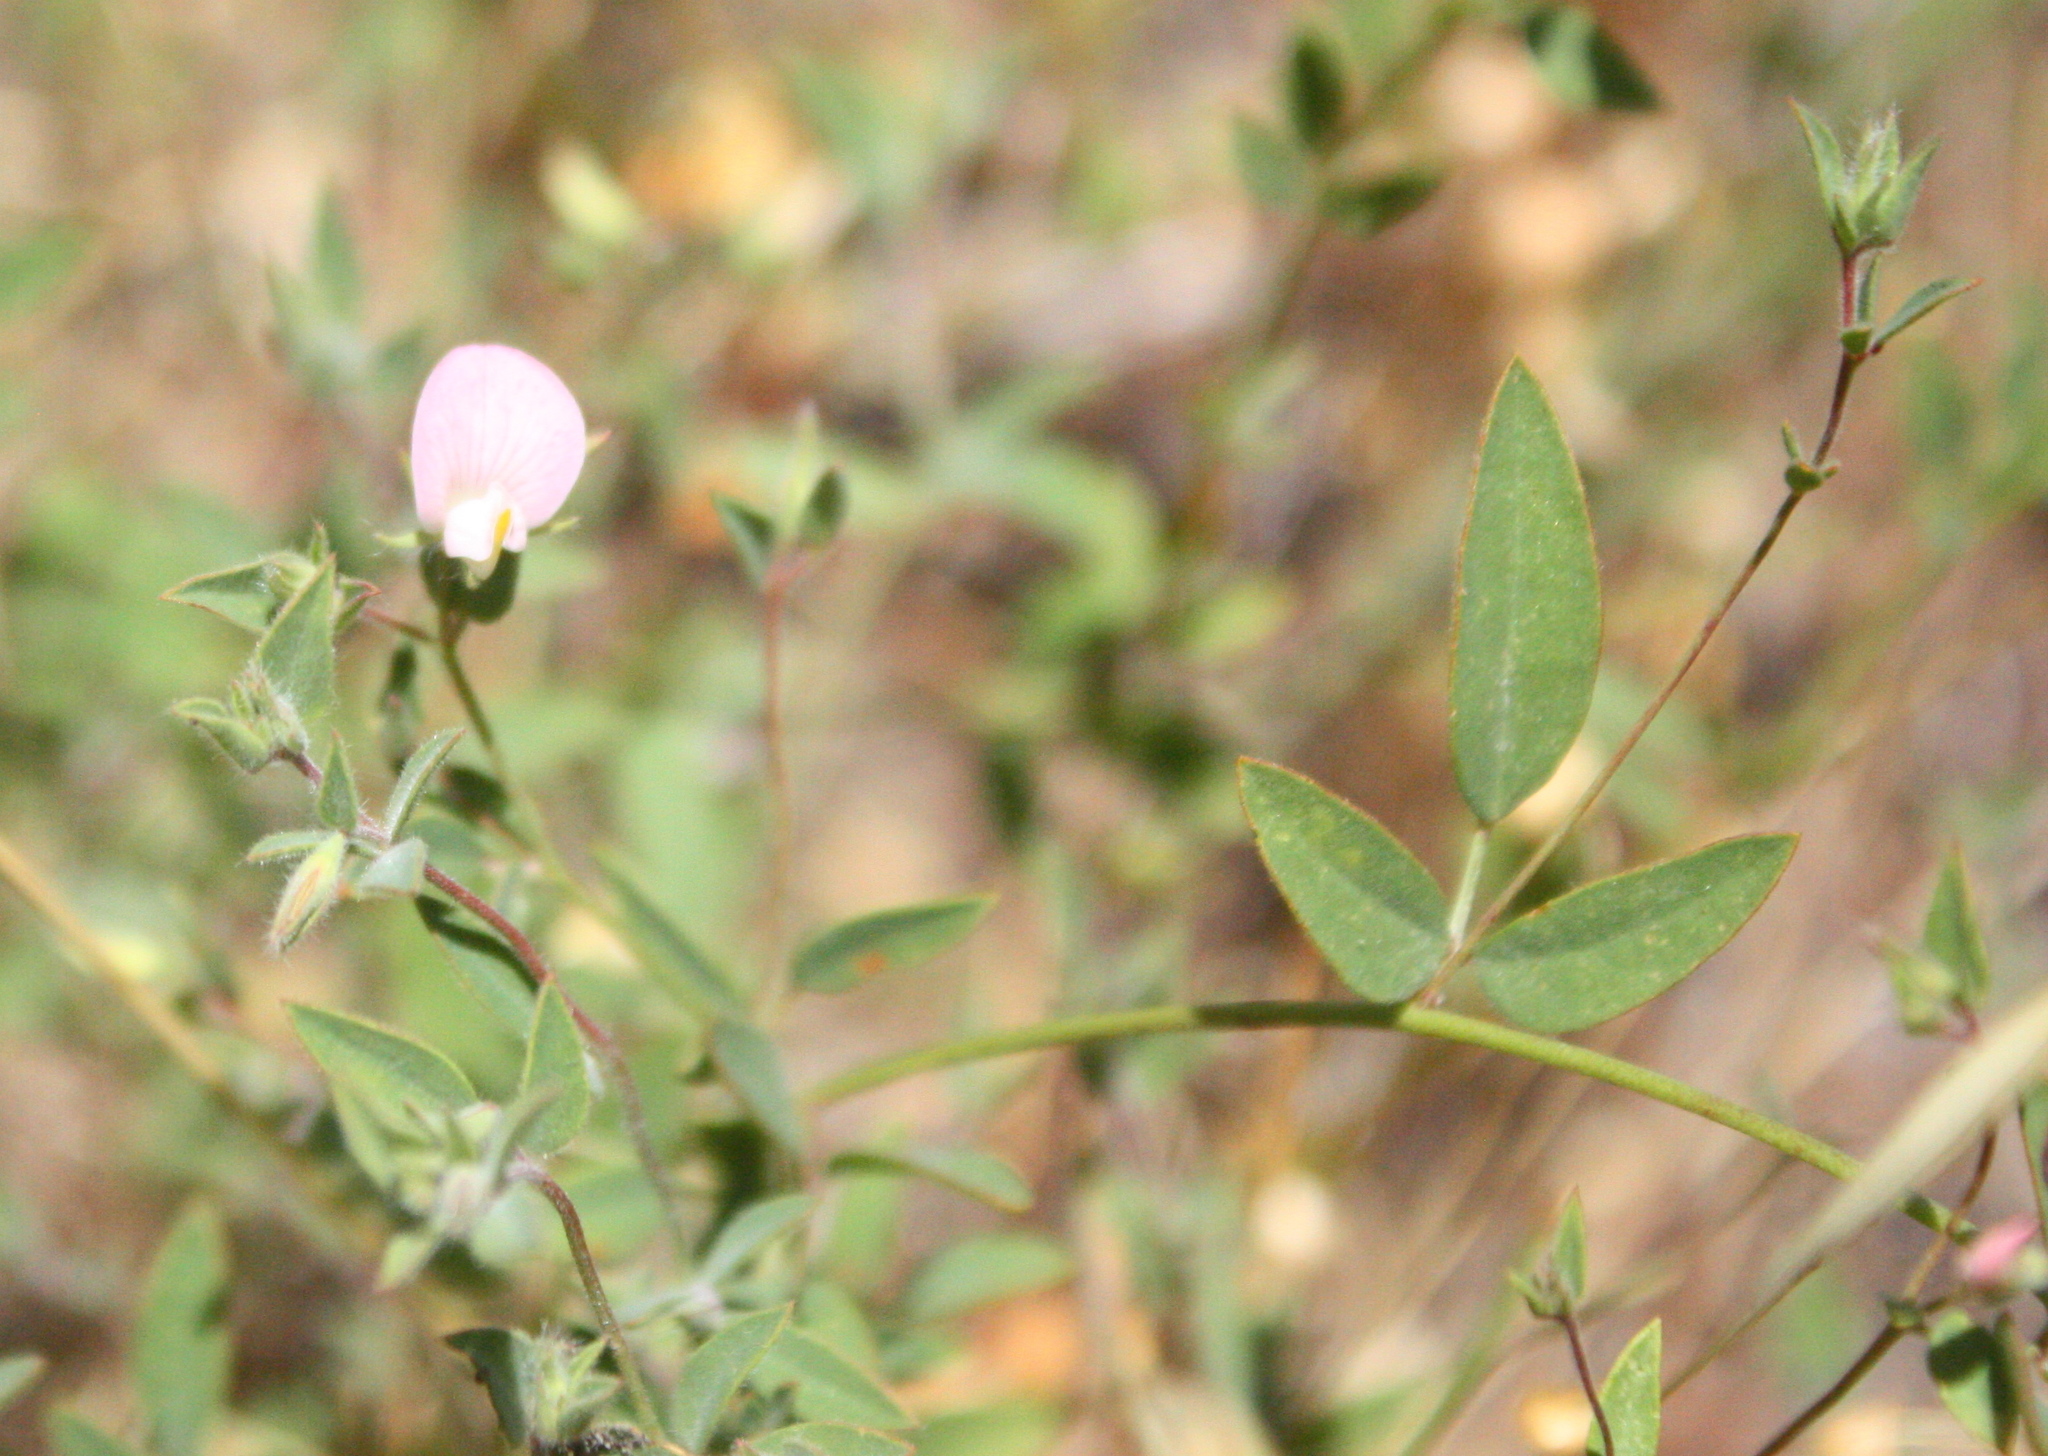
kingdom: Plantae
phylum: Tracheophyta
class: Magnoliopsida
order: Fabales
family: Fabaceae
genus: Acmispon
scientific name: Acmispon americanus
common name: American bird's-foot trefoil
